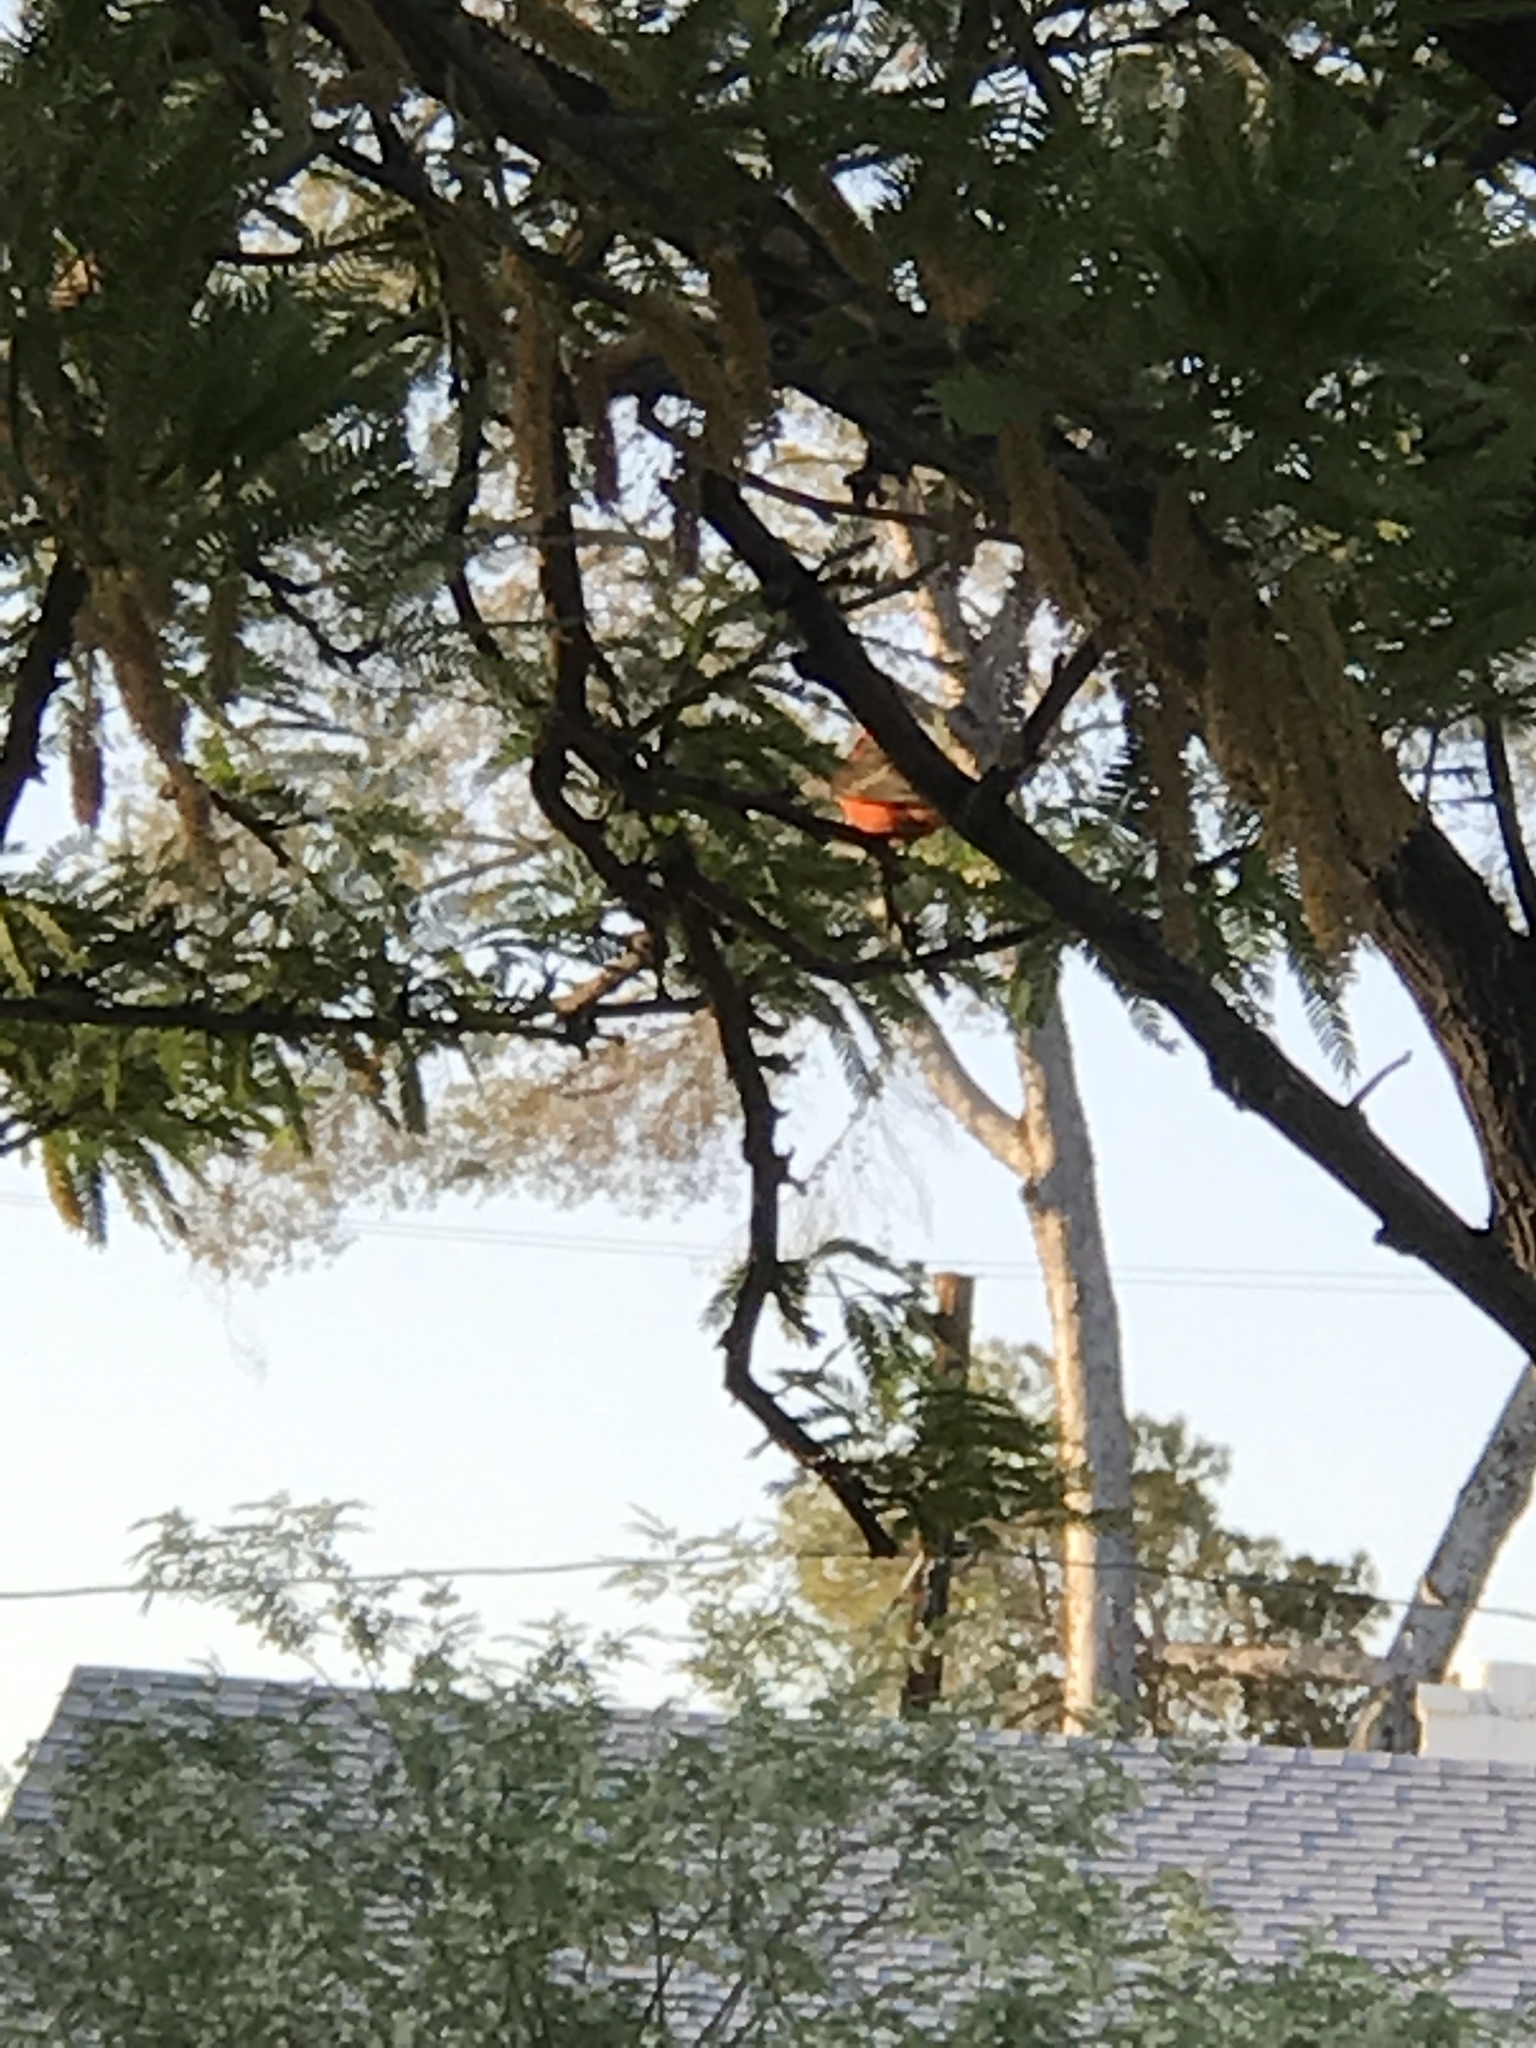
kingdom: Animalia
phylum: Chordata
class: Aves
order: Passeriformes
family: Tyrannidae
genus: Pyrocephalus
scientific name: Pyrocephalus rubinus
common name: Vermilion flycatcher
